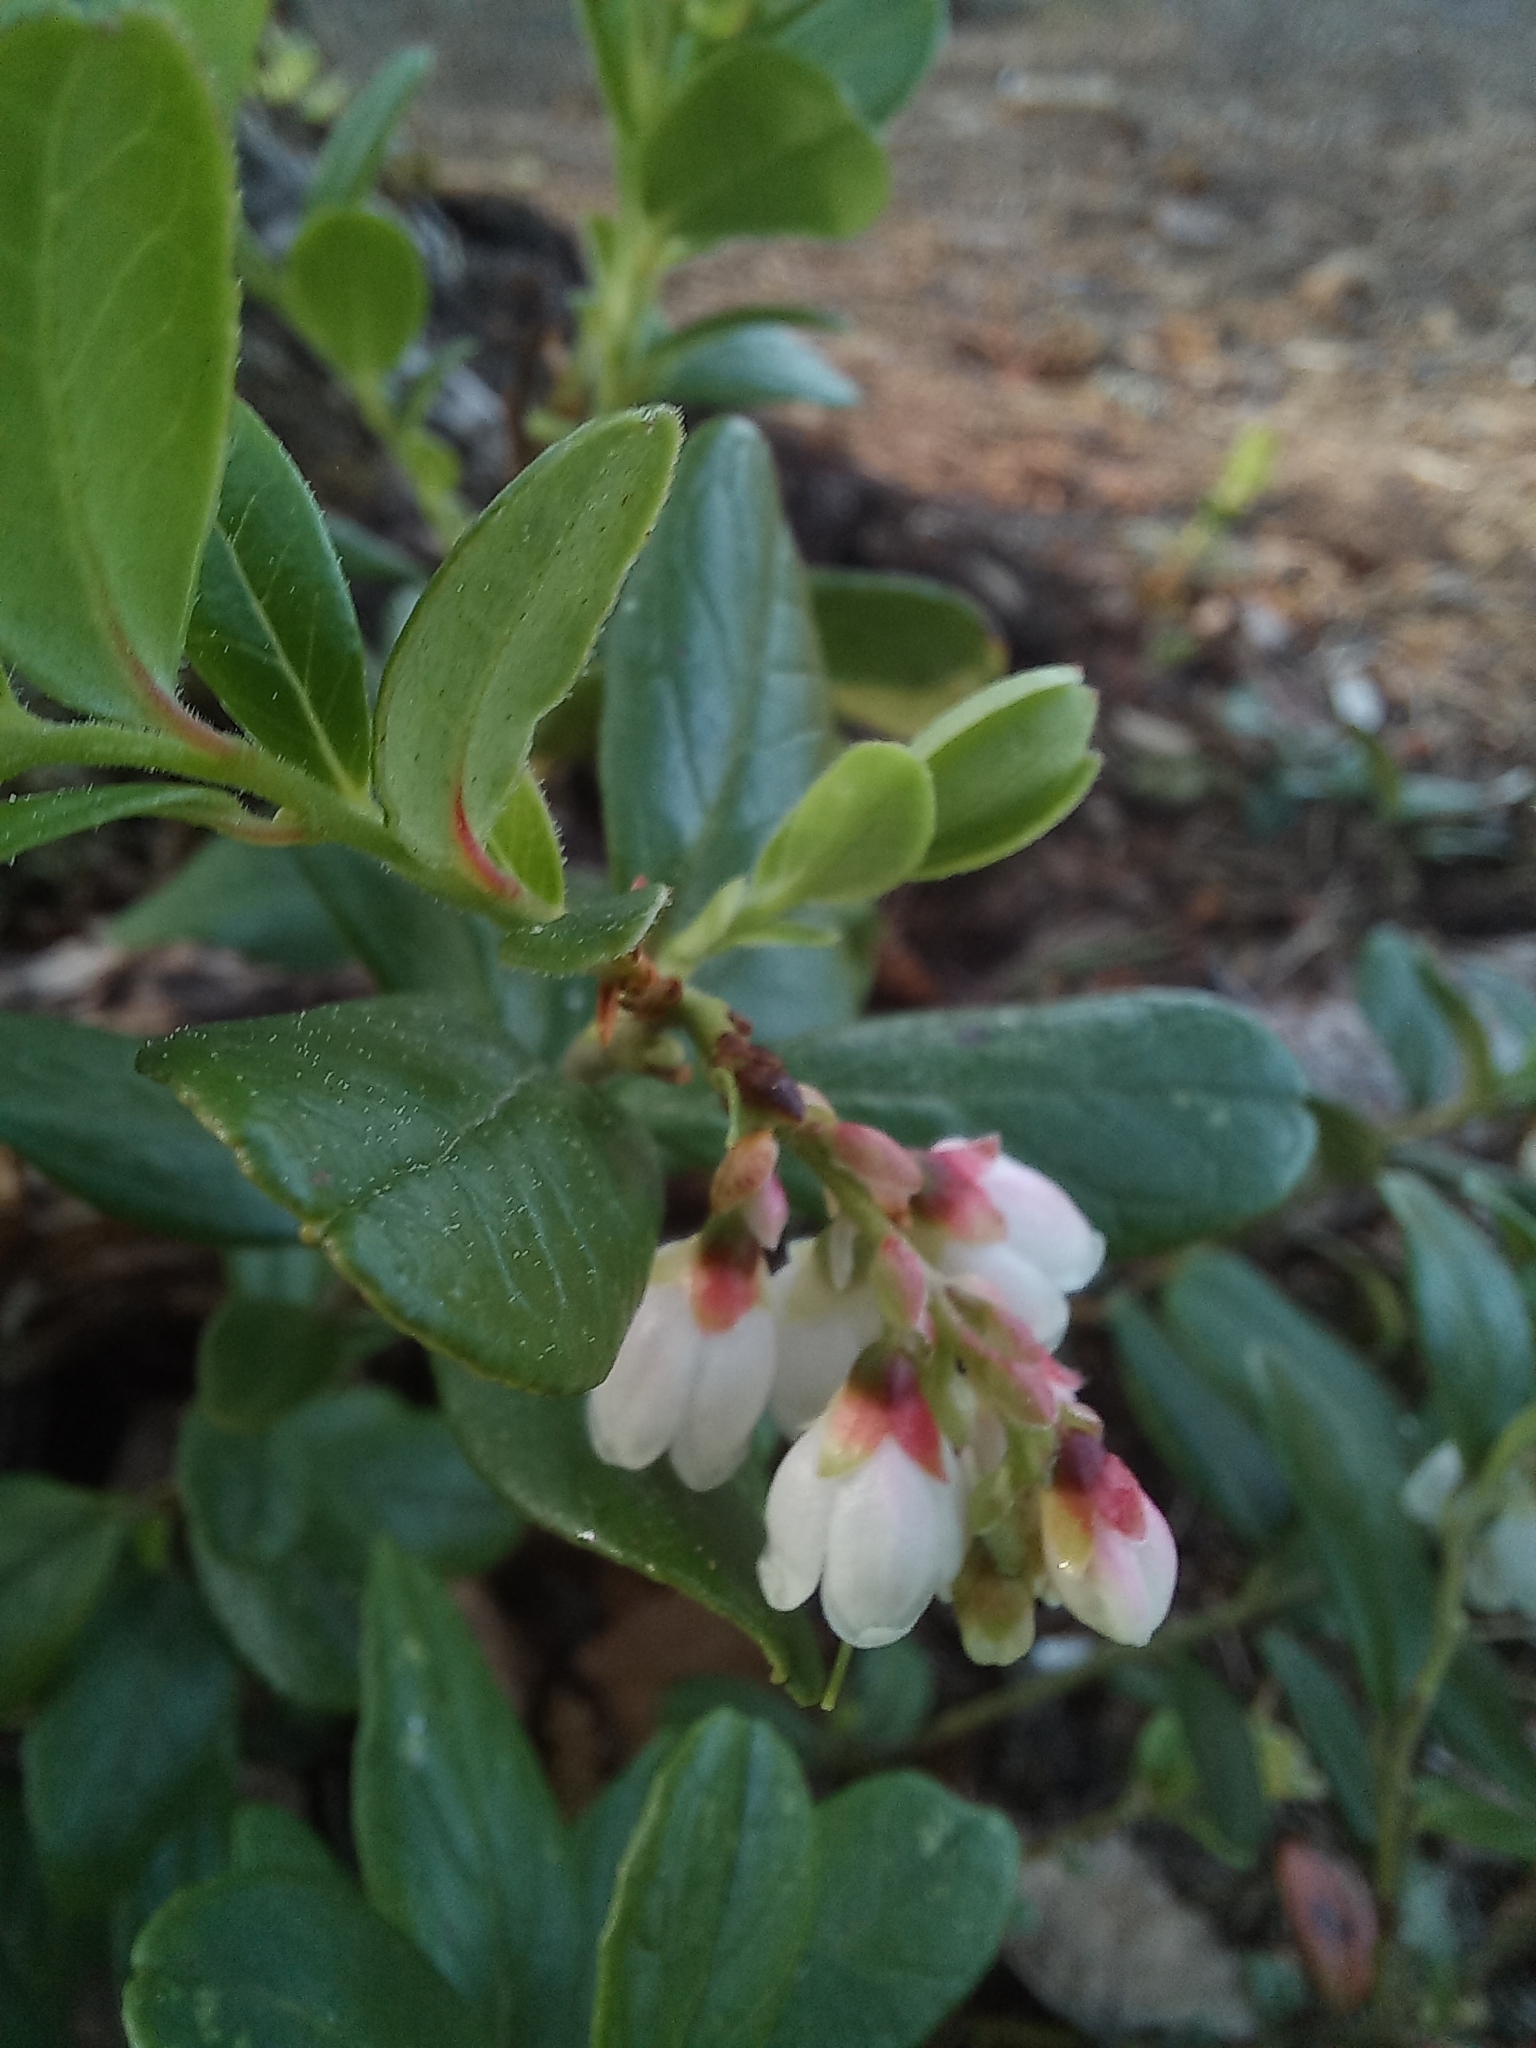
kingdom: Plantae
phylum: Tracheophyta
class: Magnoliopsida
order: Ericales
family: Ericaceae
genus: Vaccinium
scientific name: Vaccinium vitis-idaea
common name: Cowberry
